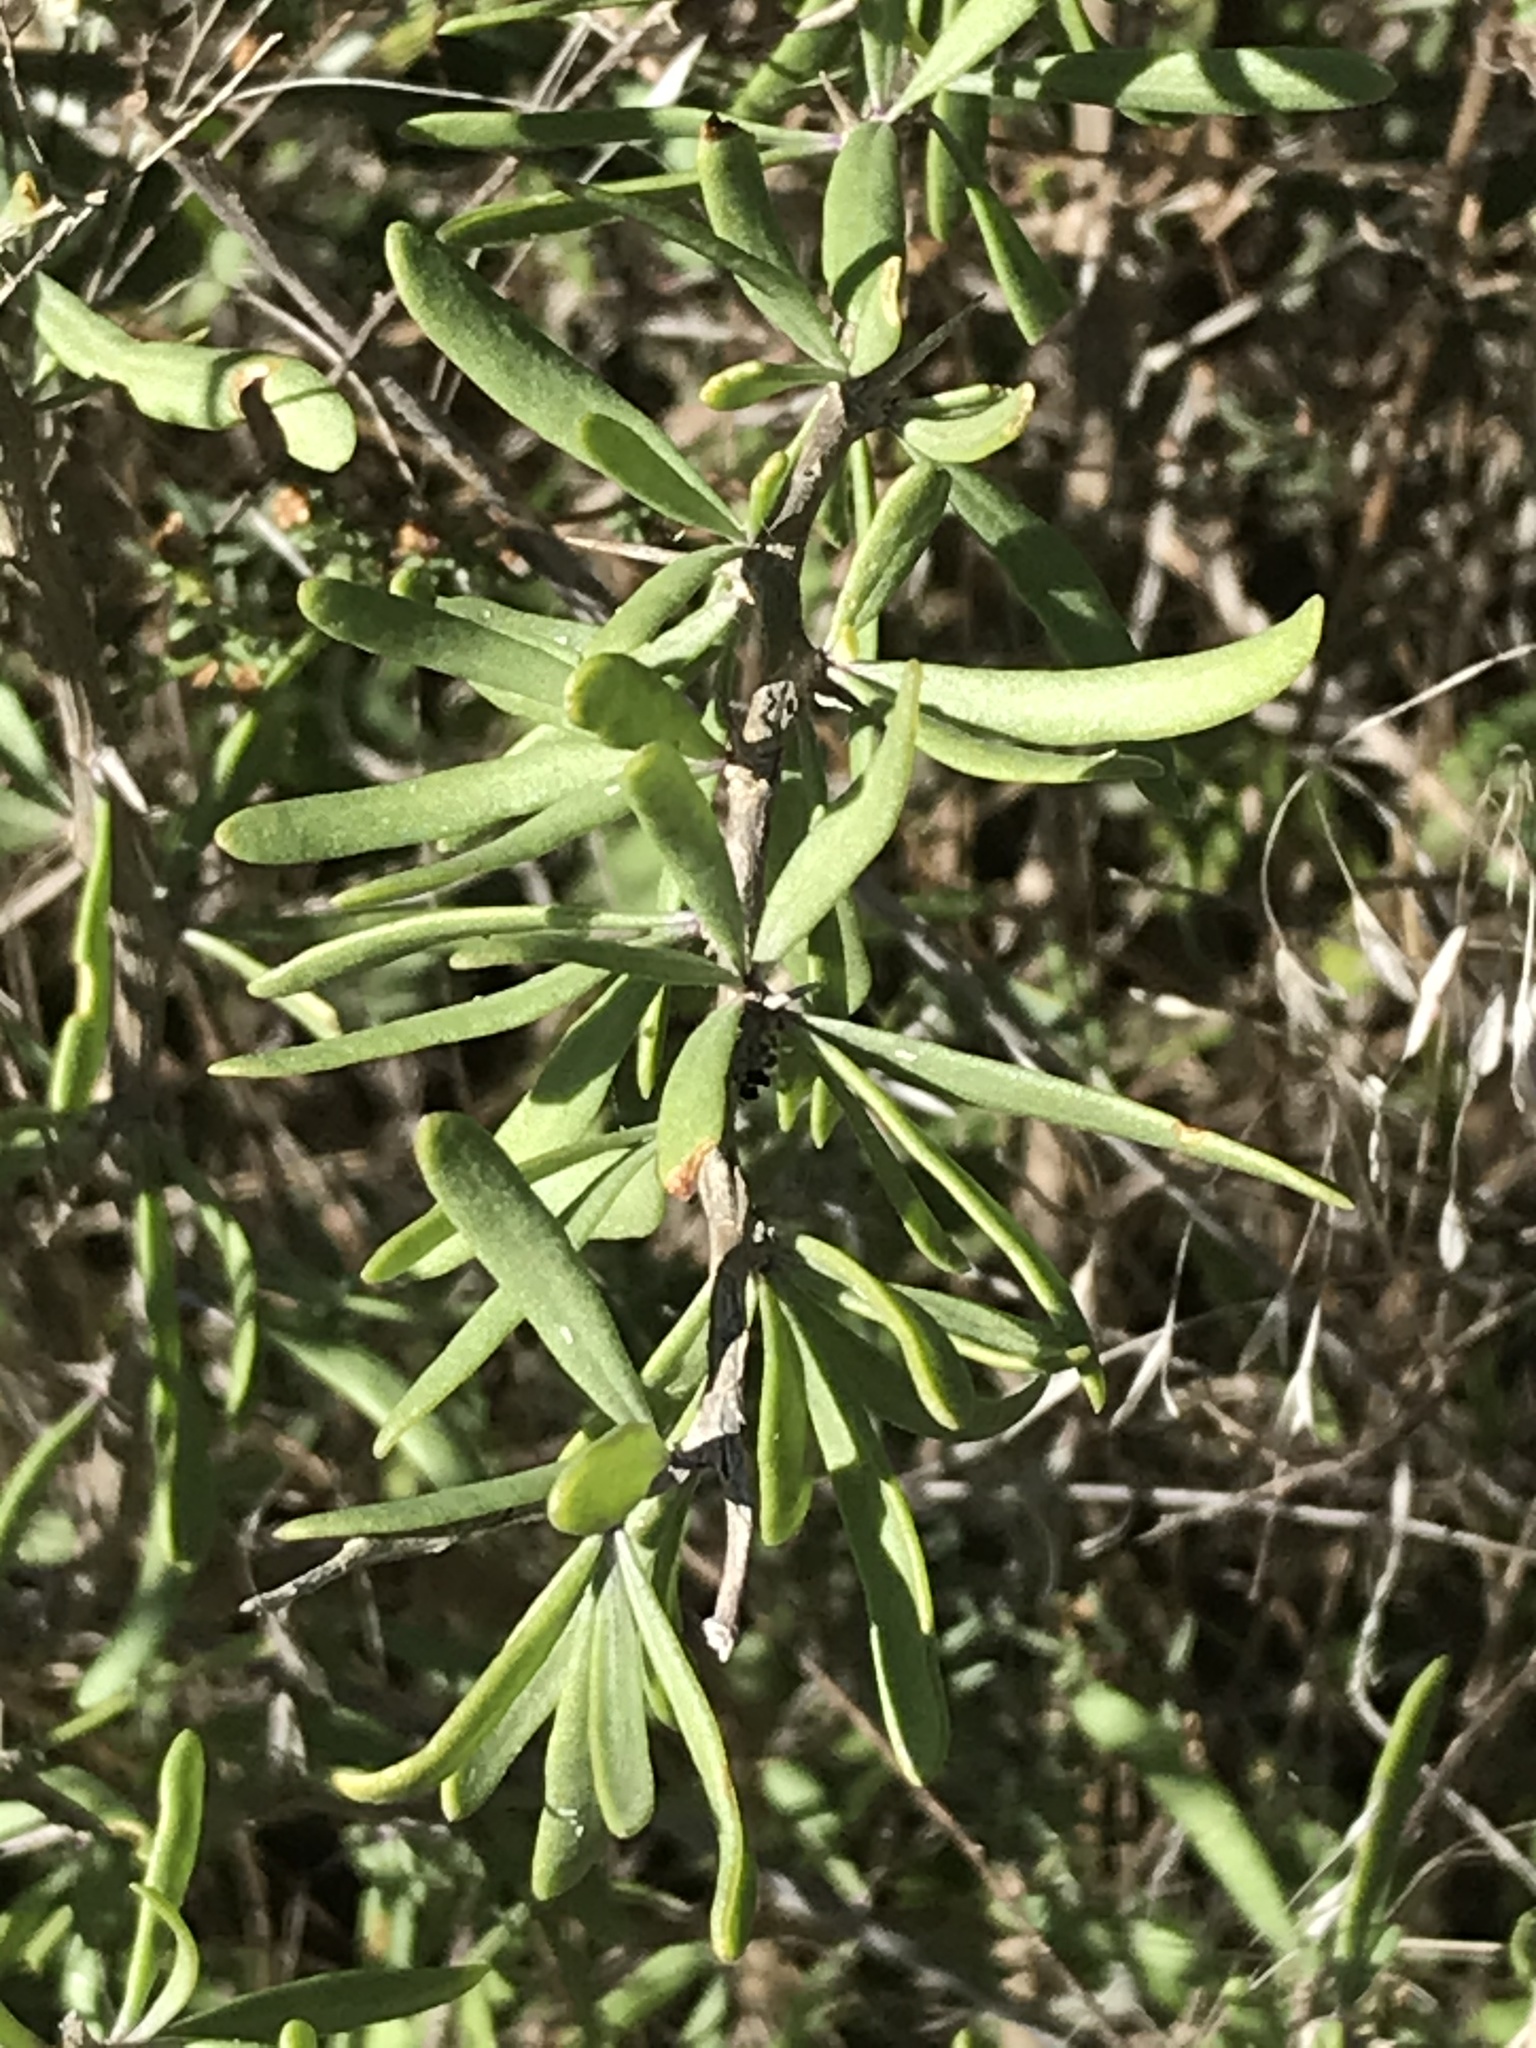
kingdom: Plantae
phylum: Tracheophyta
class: Magnoliopsida
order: Solanales
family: Solanaceae
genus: Lycium
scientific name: Lycium berlandieri
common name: Berlandier wolfberry
